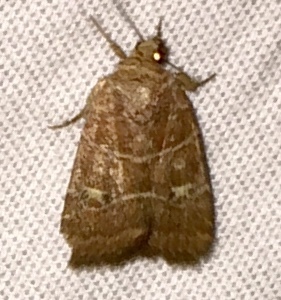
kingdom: Animalia
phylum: Arthropoda
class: Insecta
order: Lepidoptera
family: Noctuidae
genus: Elaphria
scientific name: Elaphria grata
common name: Grateful midget moth
